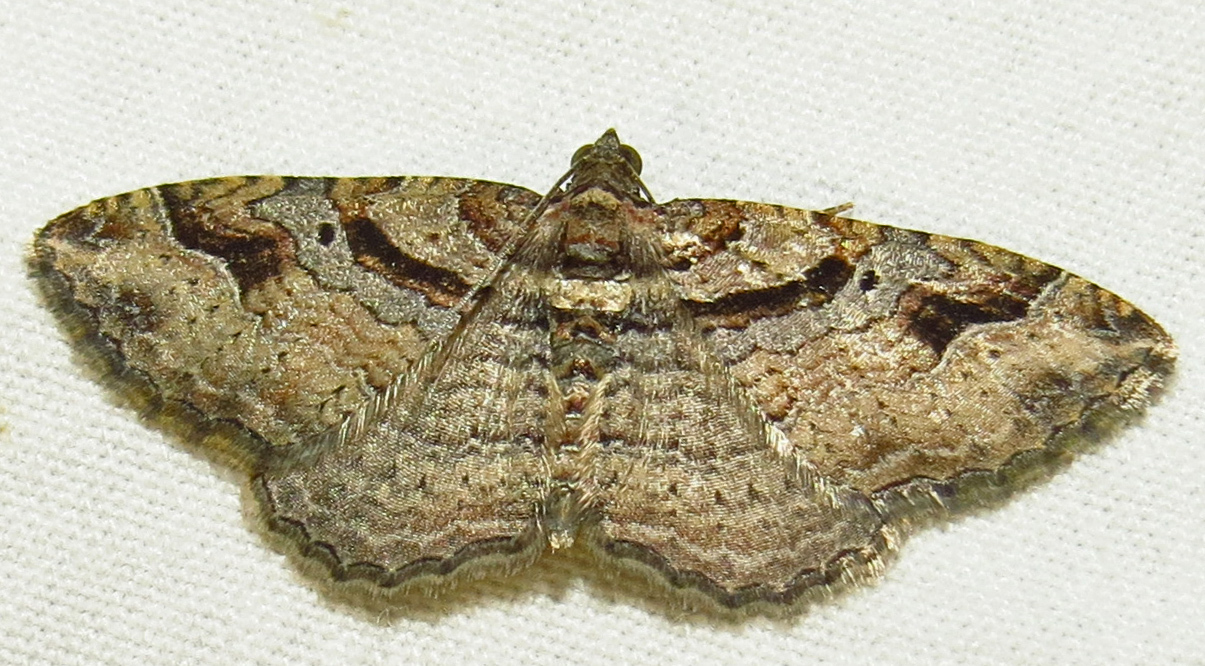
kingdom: Animalia
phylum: Arthropoda
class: Insecta
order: Lepidoptera
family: Geometridae
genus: Costaconvexa
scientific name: Costaconvexa centrostrigaria
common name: Bent-line carpet
